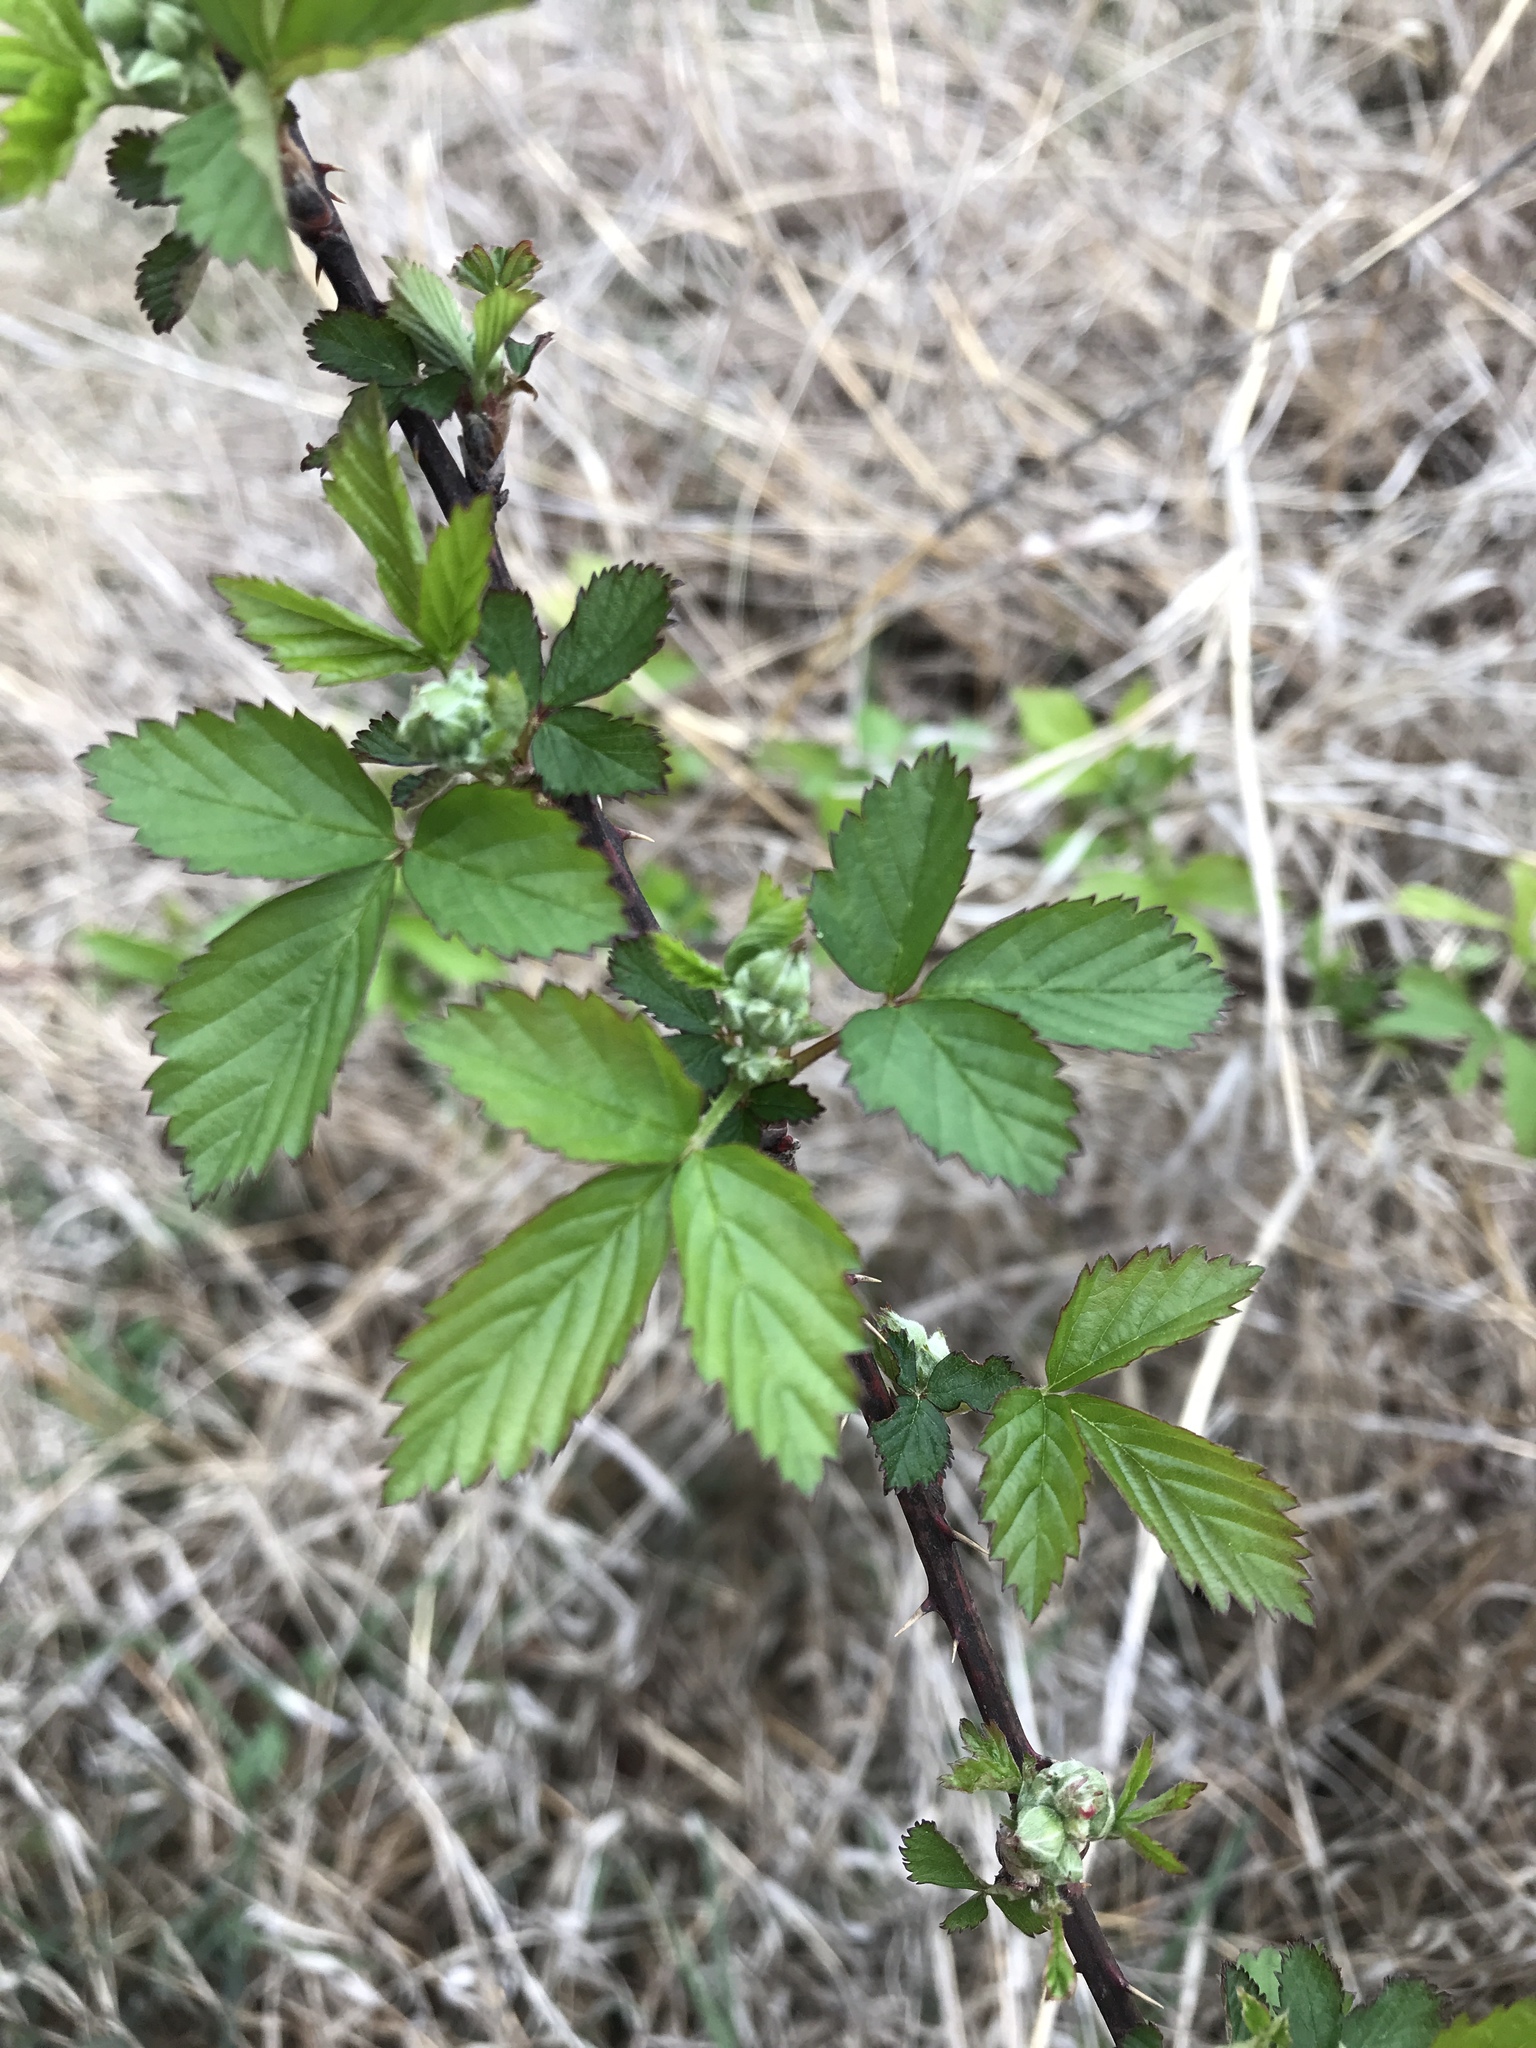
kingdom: Plantae
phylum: Tracheophyta
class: Magnoliopsida
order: Rosales
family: Rosaceae
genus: Rubus
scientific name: Rubus oklahomus
